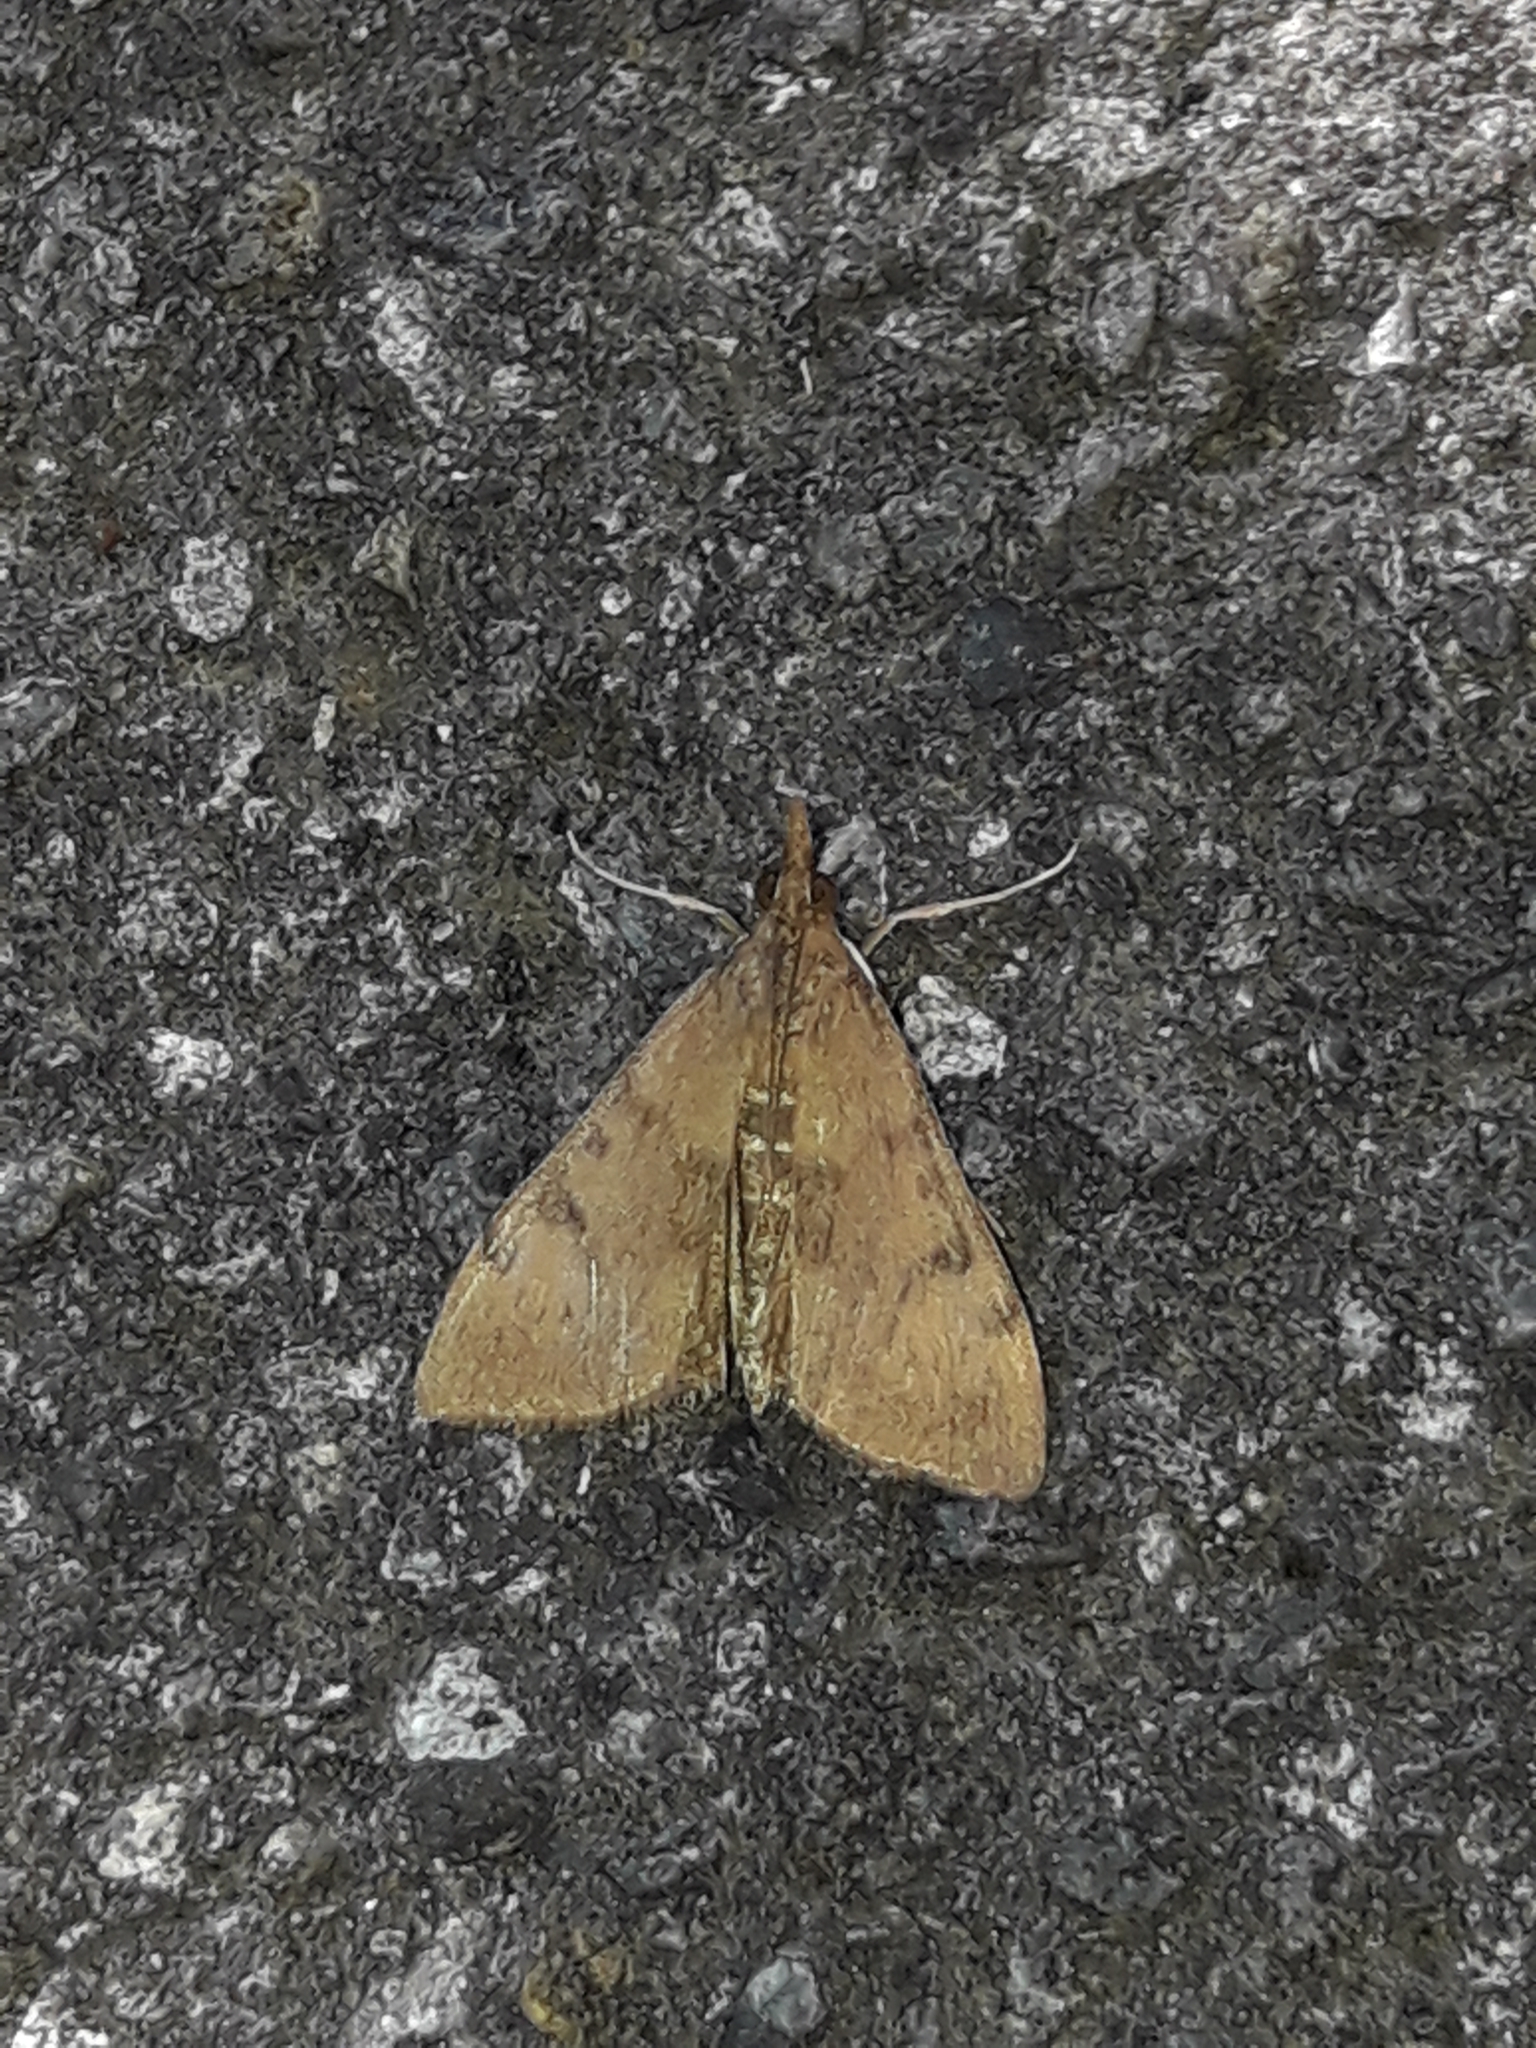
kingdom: Animalia
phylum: Arthropoda
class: Insecta
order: Lepidoptera
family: Crambidae
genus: Uresiphita
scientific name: Uresiphita
